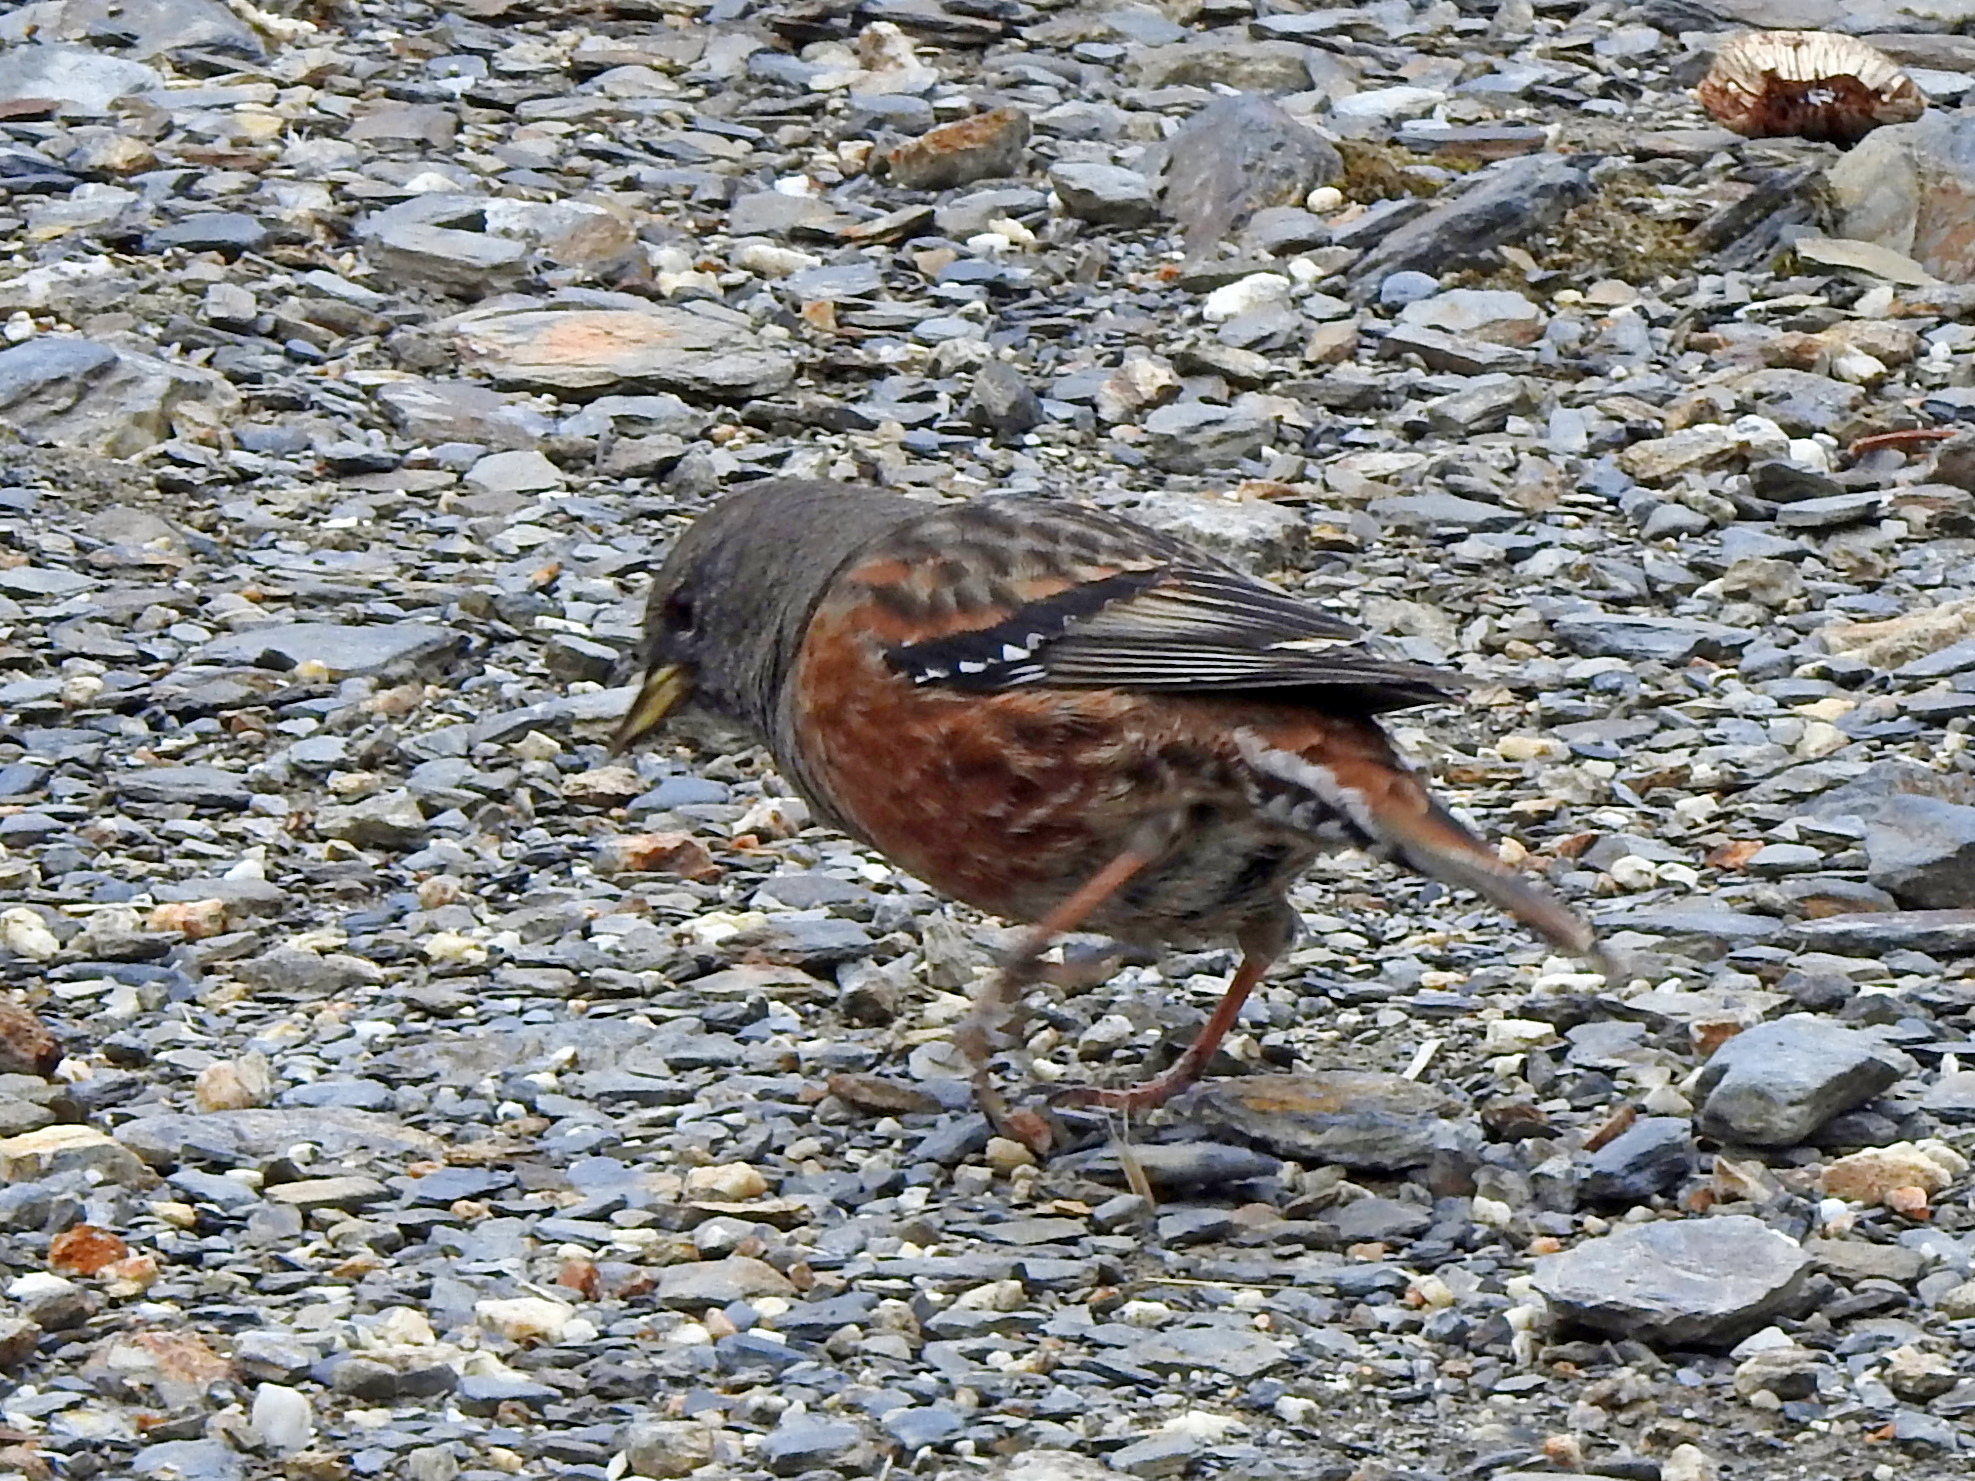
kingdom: Animalia
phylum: Chordata
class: Aves
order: Passeriformes
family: Prunellidae
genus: Prunella
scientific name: Prunella collaris
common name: Alpine accentor
